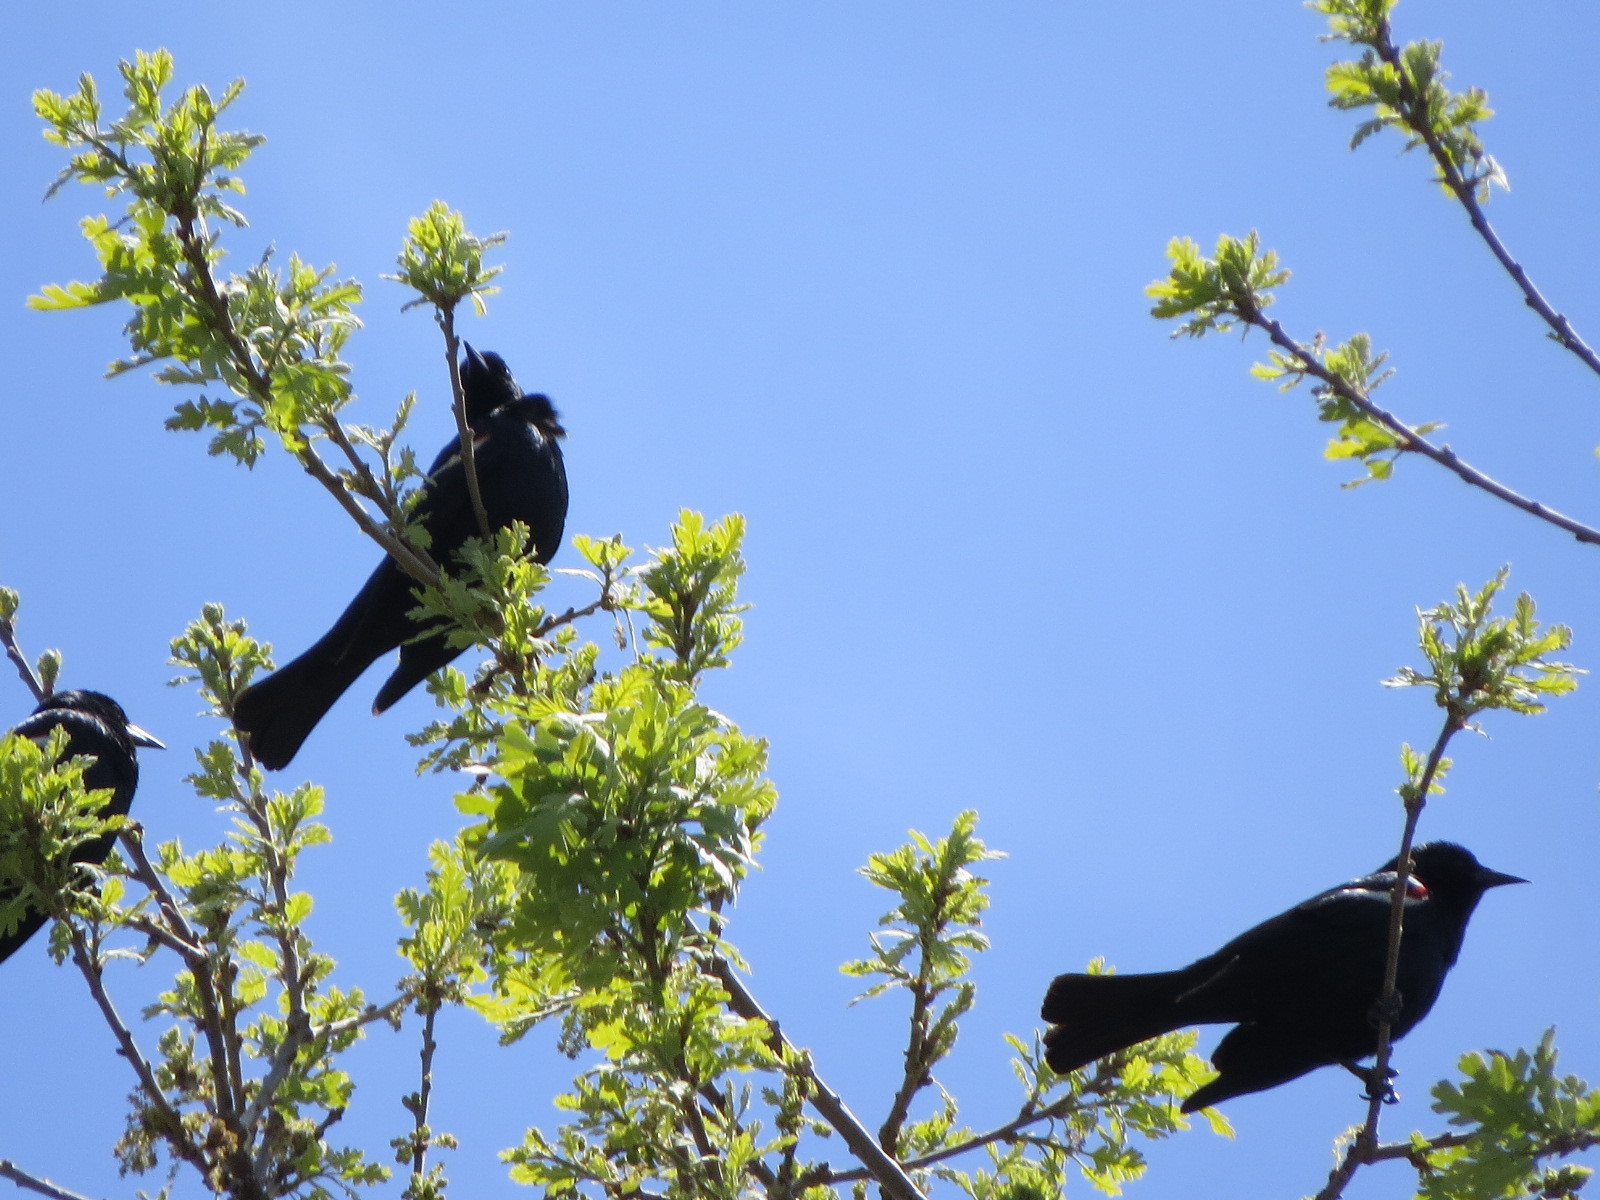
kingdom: Animalia
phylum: Chordata
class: Aves
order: Passeriformes
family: Icteridae
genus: Agelaius
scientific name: Agelaius tricolor
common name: Tricolored blackbird
